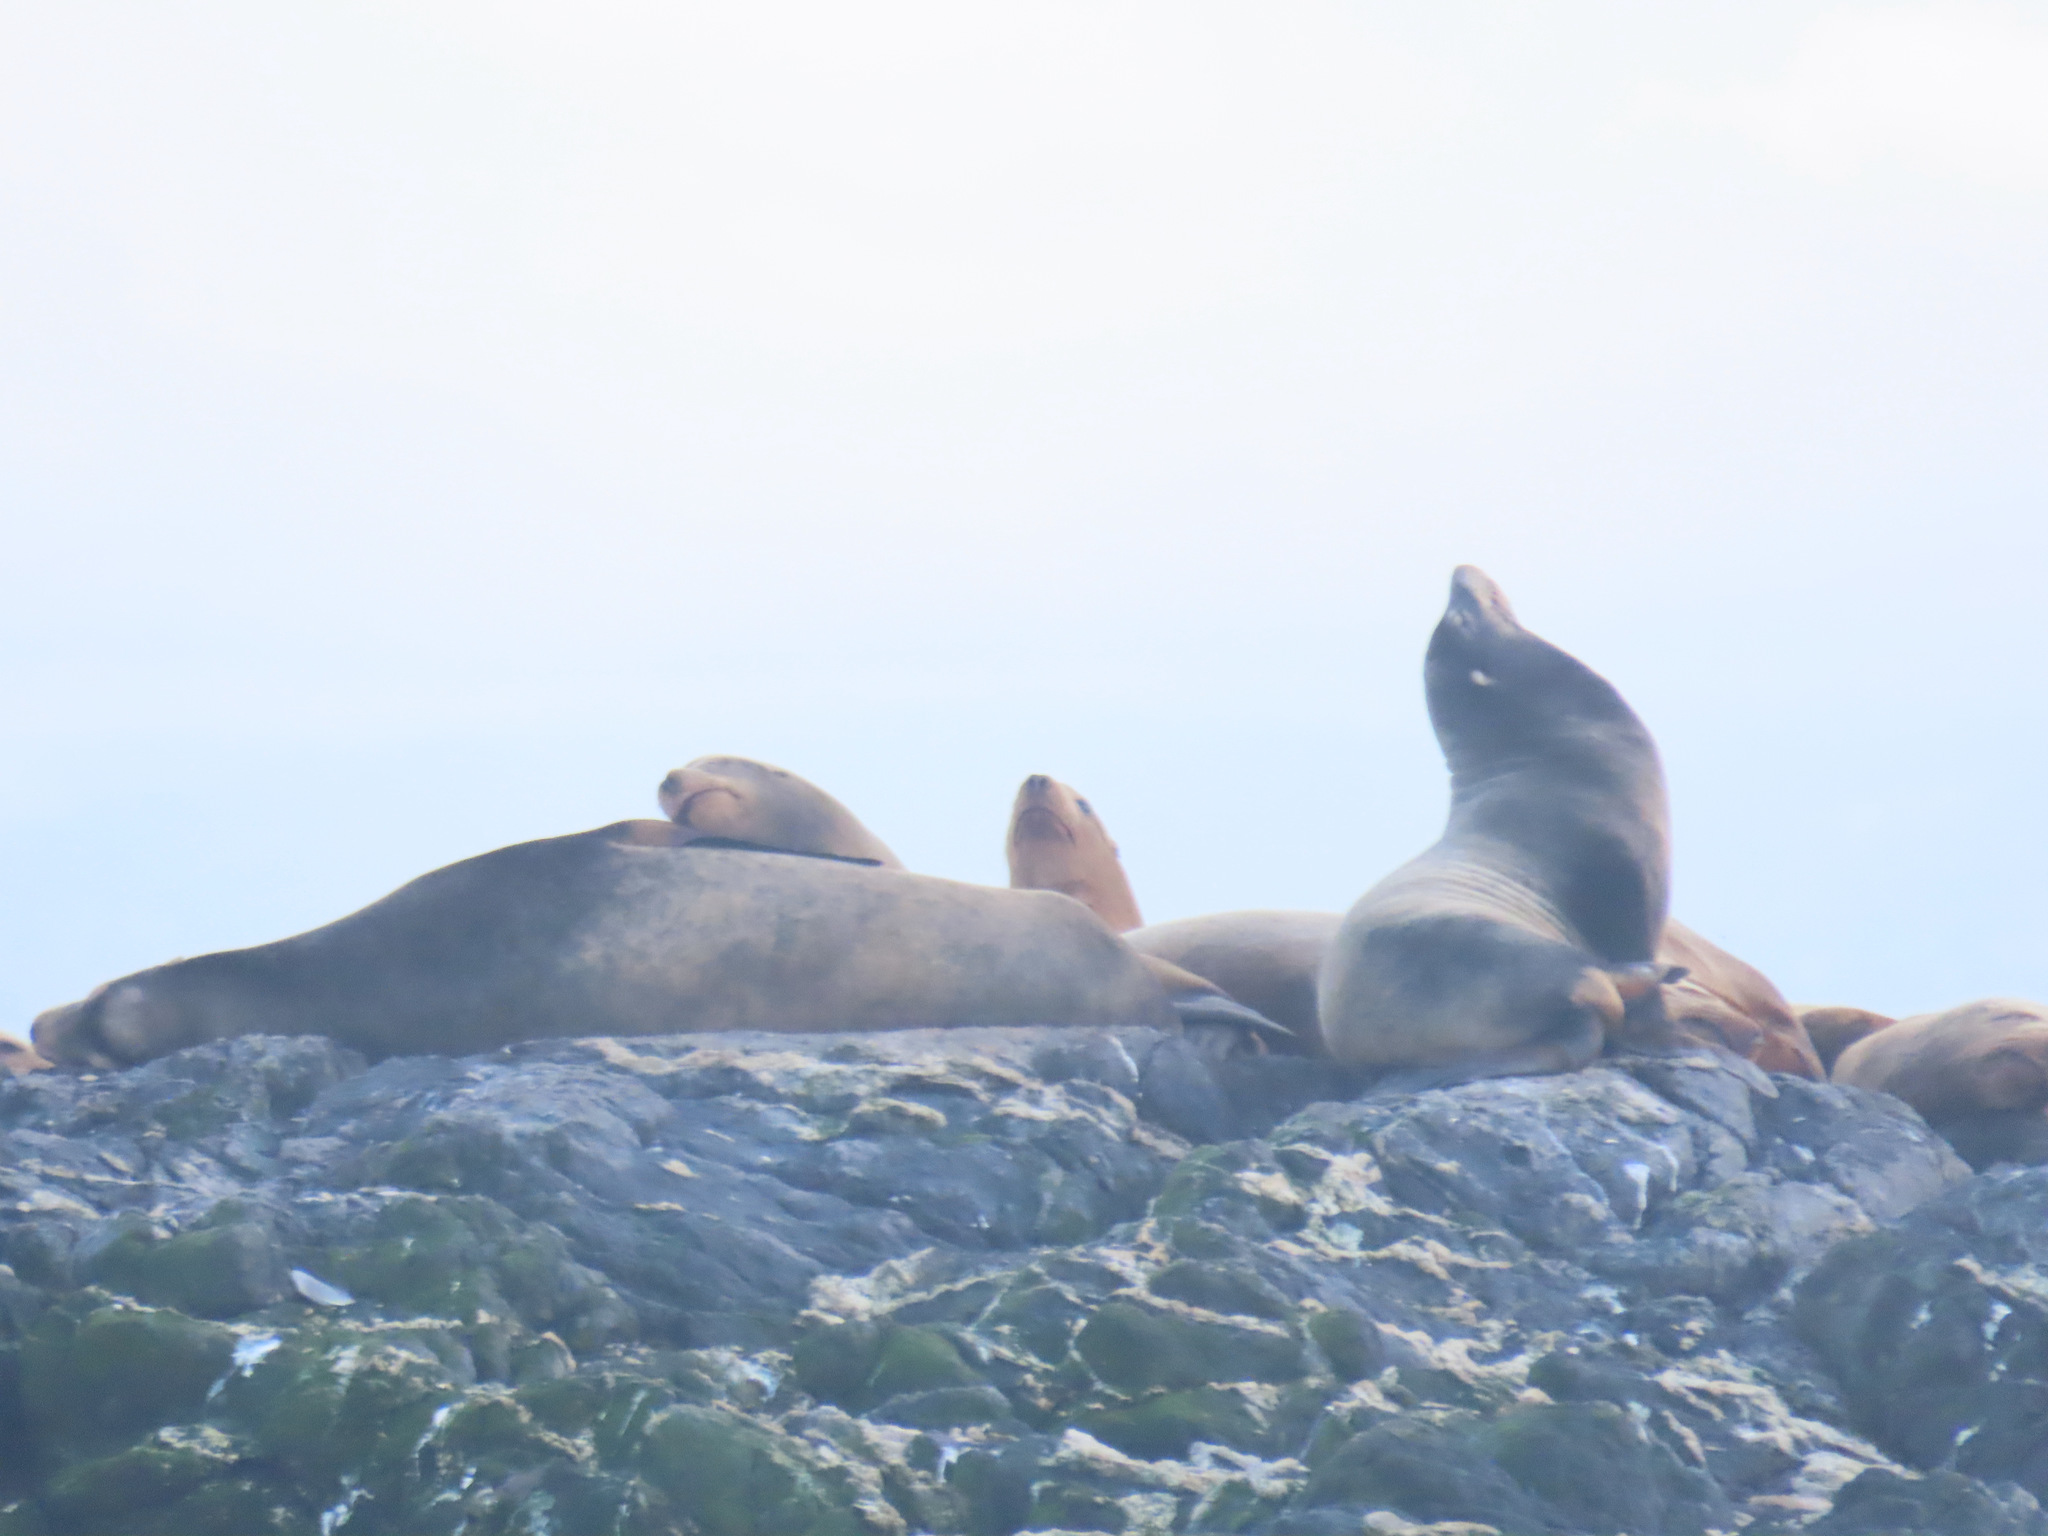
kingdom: Animalia
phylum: Chordata
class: Mammalia
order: Carnivora
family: Otariidae
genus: Eumetopias
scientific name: Eumetopias jubatus
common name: Steller sea lion
